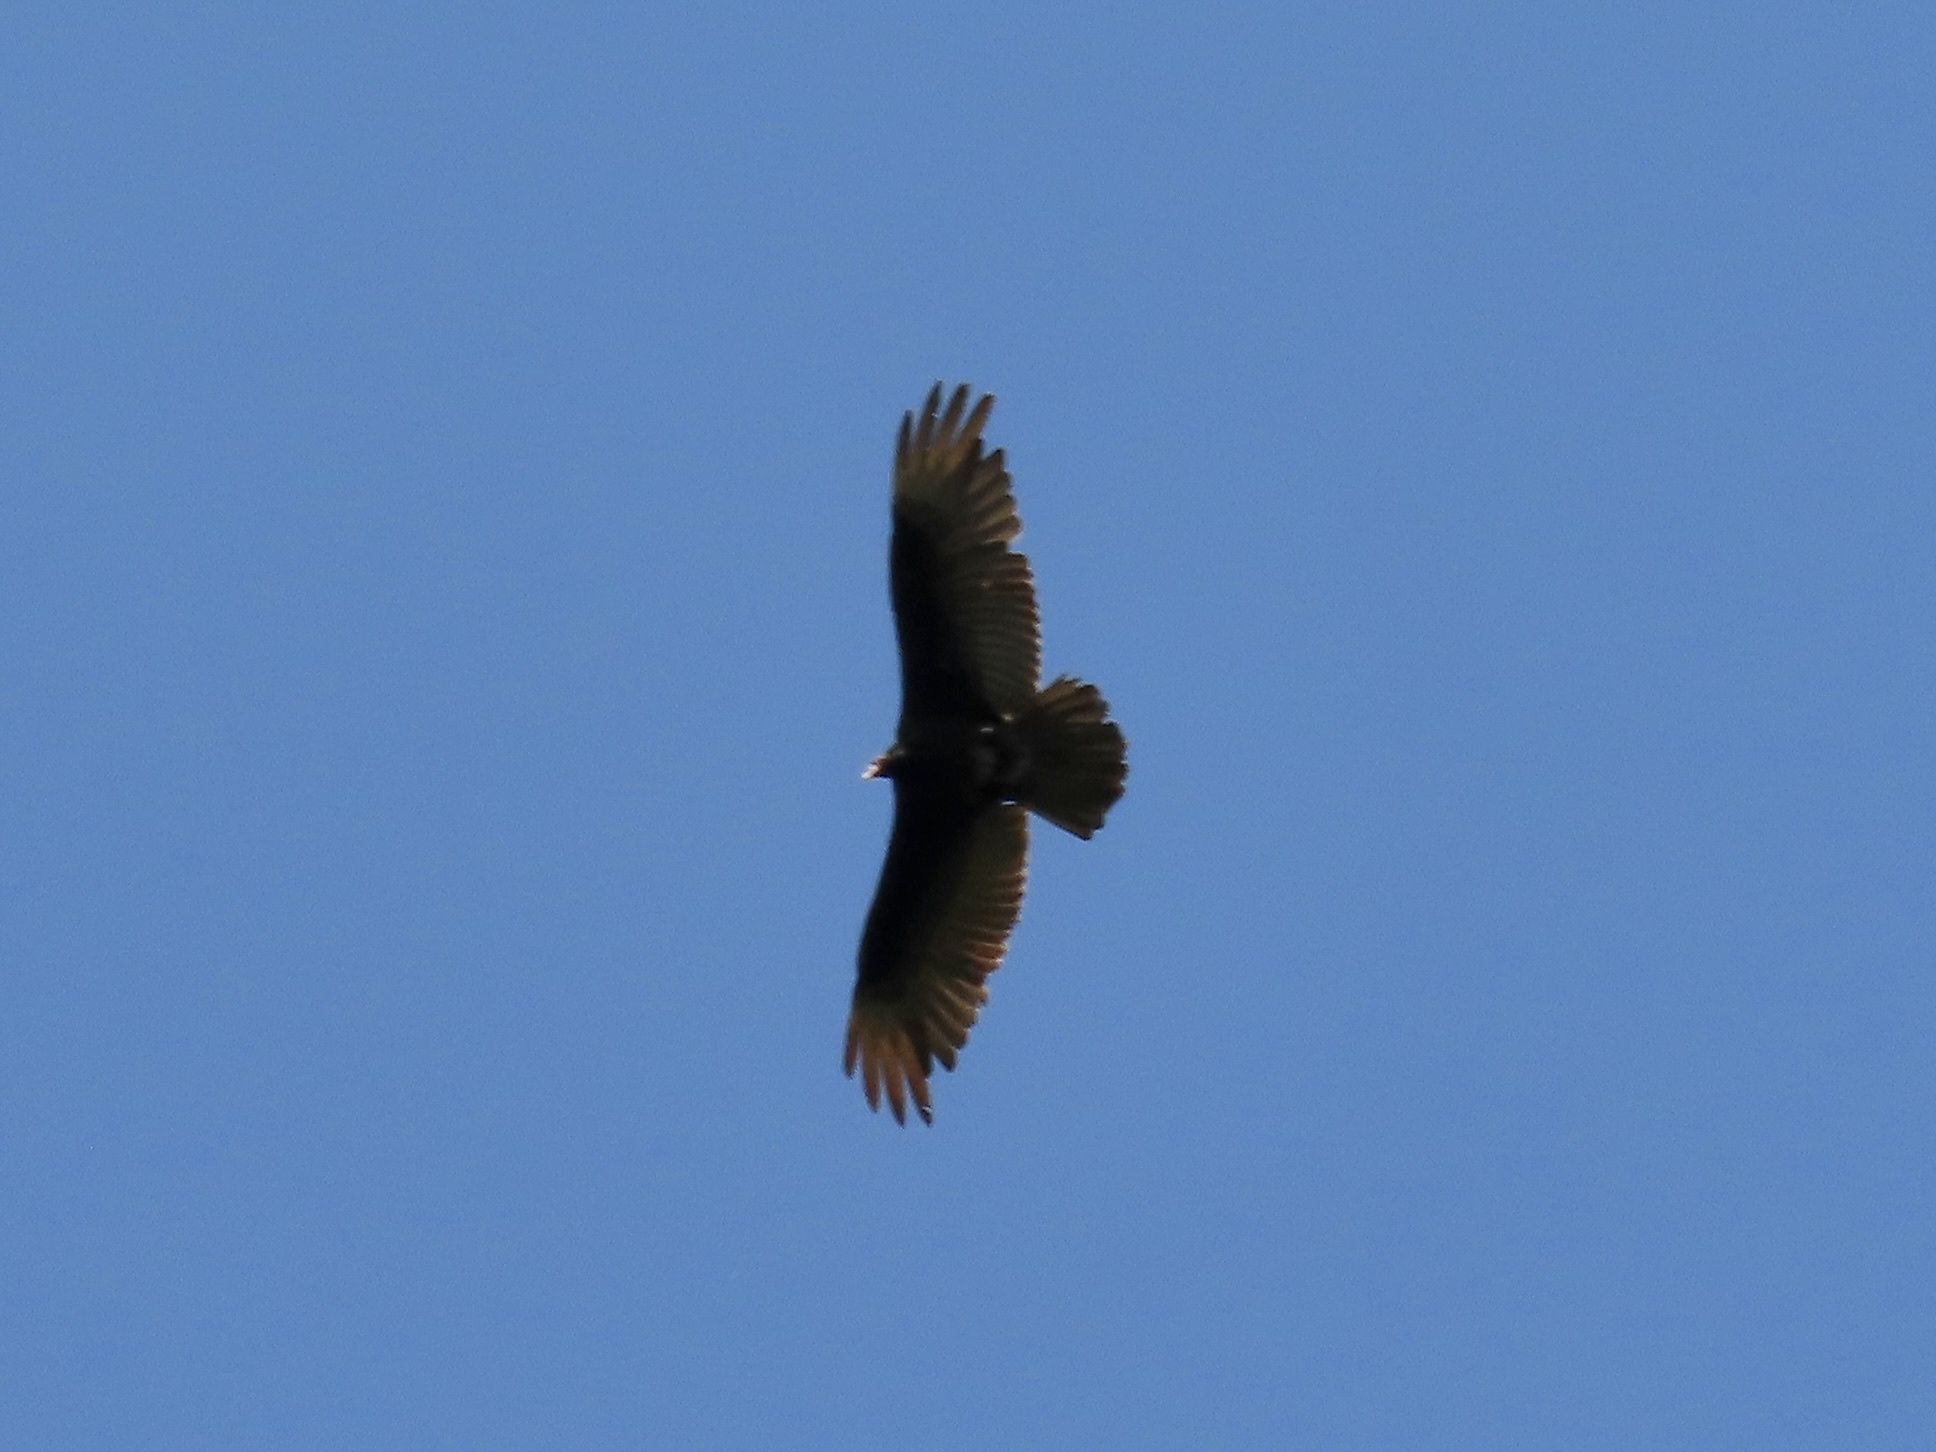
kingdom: Animalia
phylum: Chordata
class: Aves
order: Accipitriformes
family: Cathartidae
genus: Cathartes
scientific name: Cathartes aura
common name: Turkey vulture
